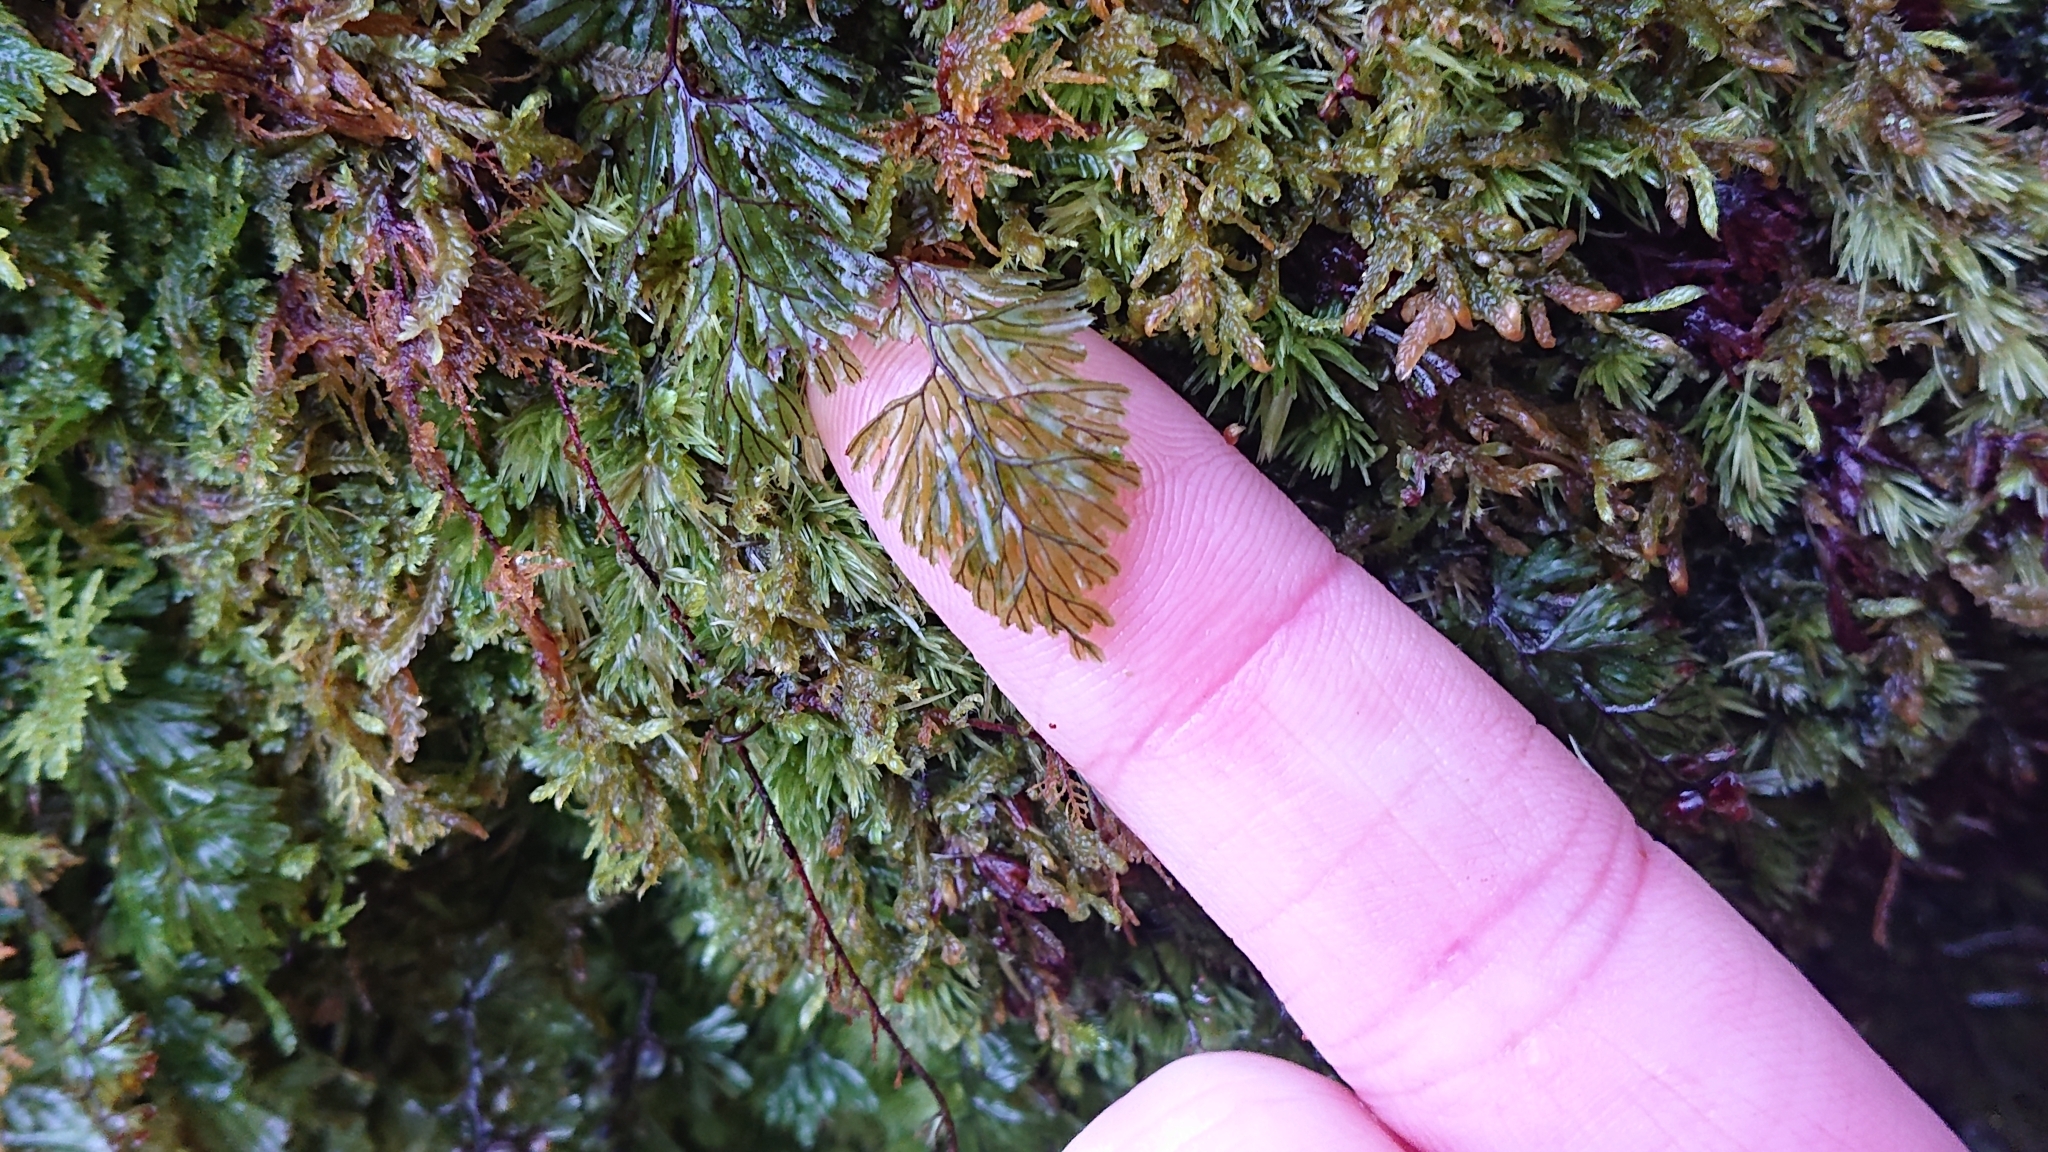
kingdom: Plantae
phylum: Tracheophyta
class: Polypodiopsida
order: Hymenophyllales
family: Hymenophyllaceae
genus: Hymenophyllum
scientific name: Hymenophyllum tunbrigense
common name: Tunbridge filmy fern
